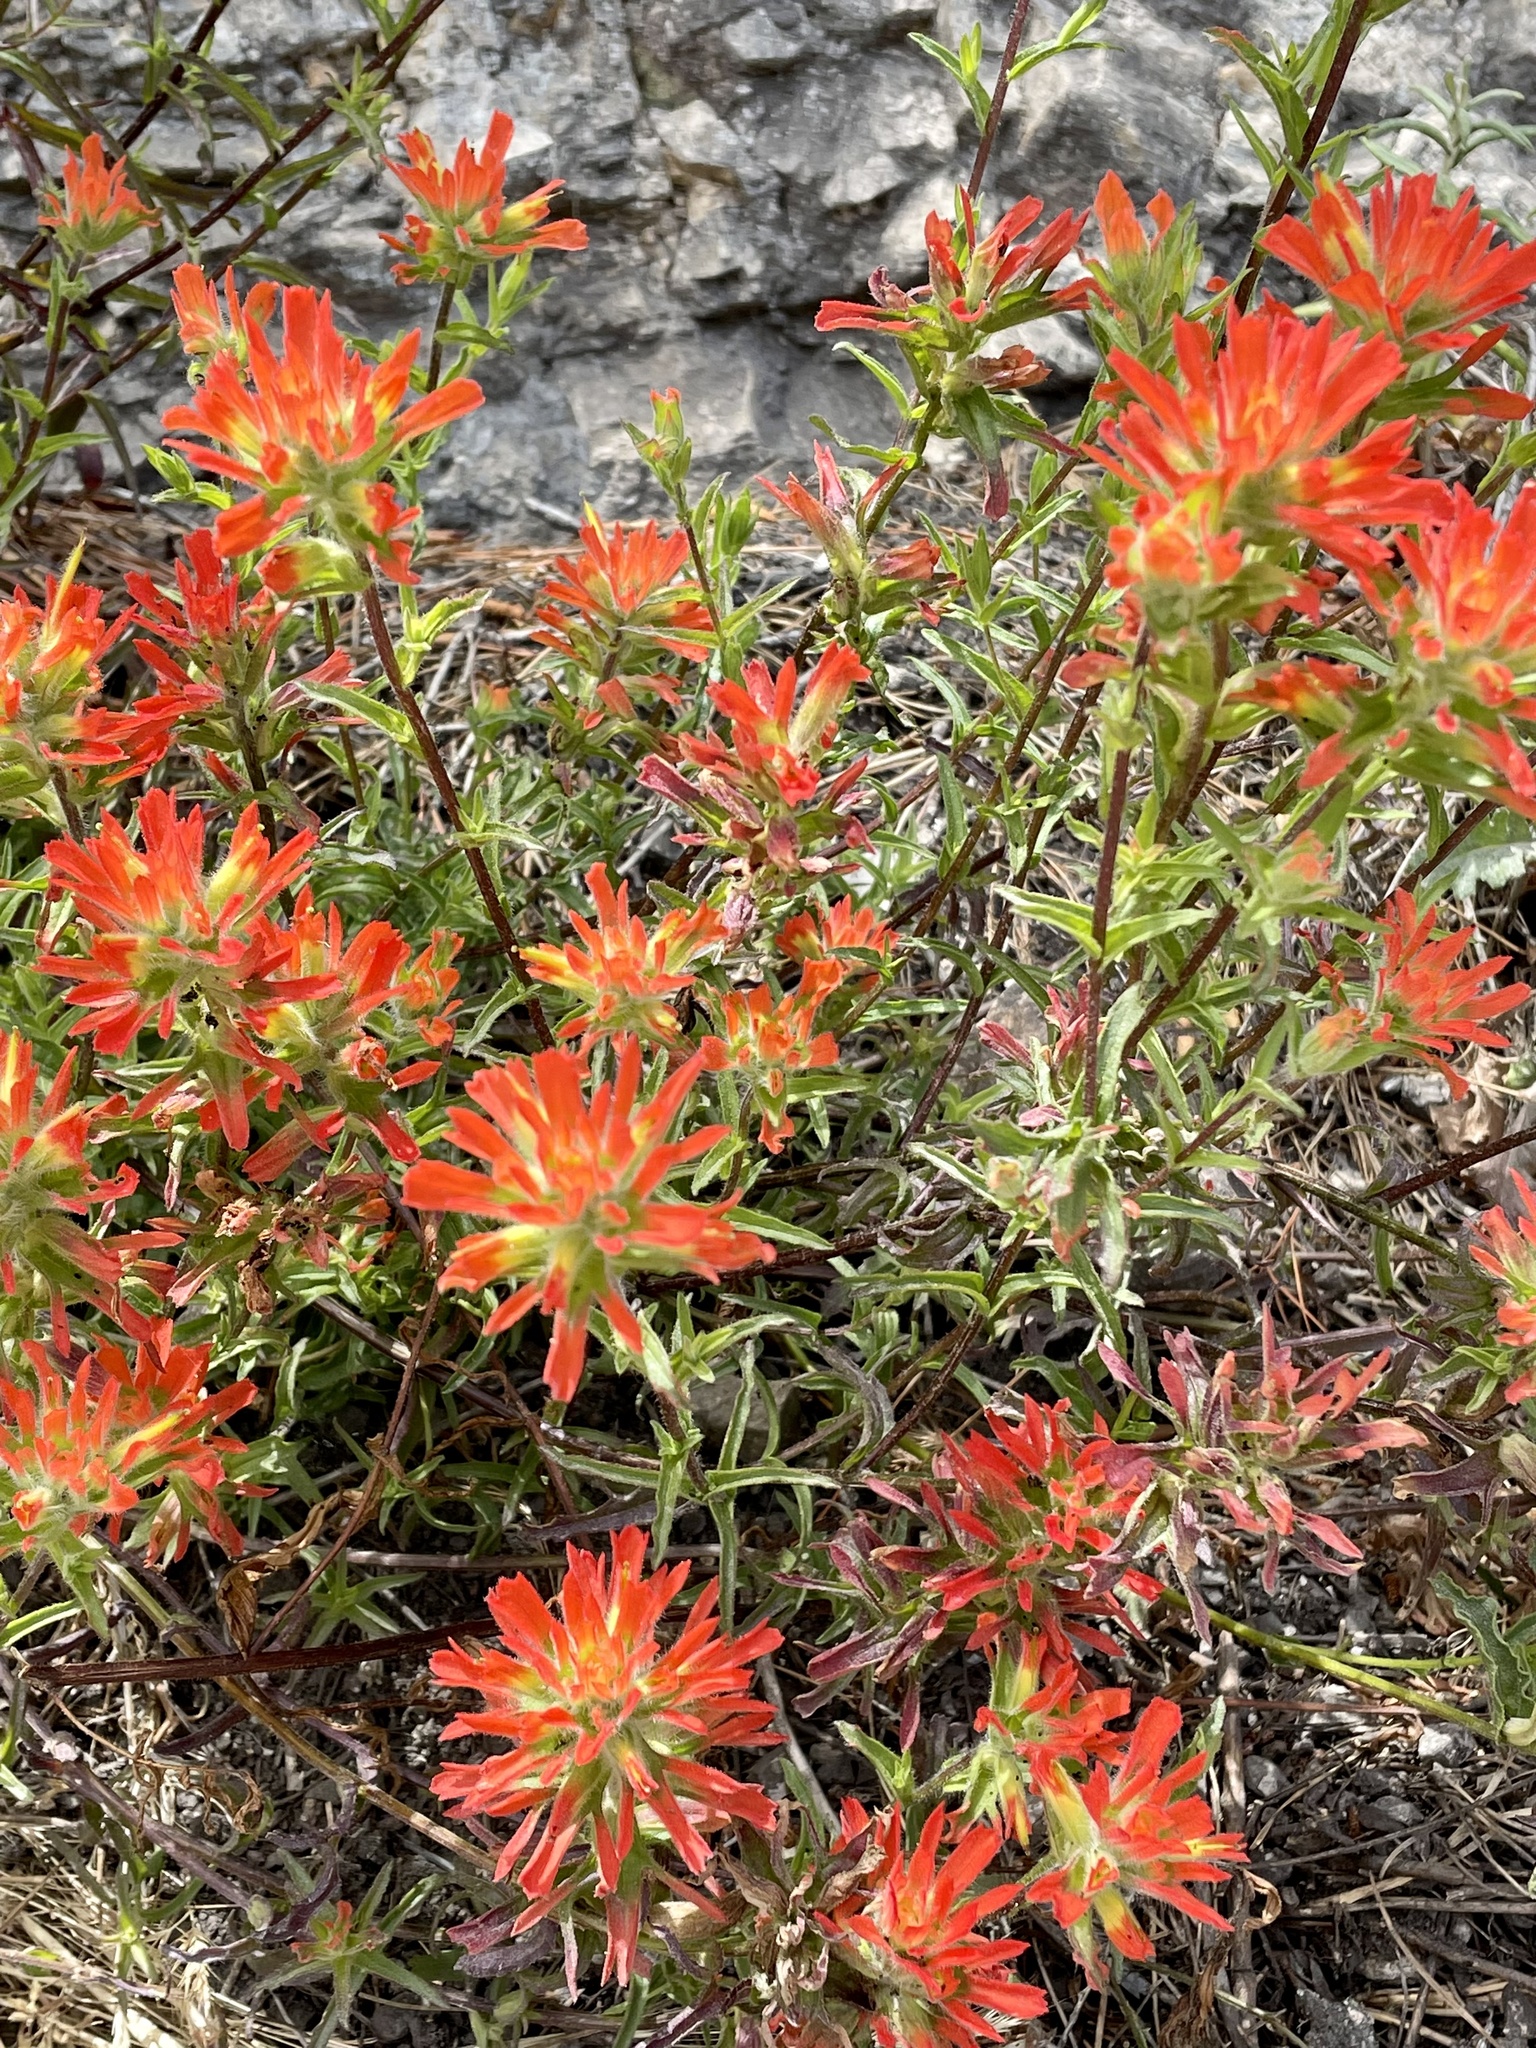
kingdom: Plantae
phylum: Tracheophyta
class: Magnoliopsida
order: Lamiales
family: Orobanchaceae
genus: Castilleja
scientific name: Castilleja affinis
